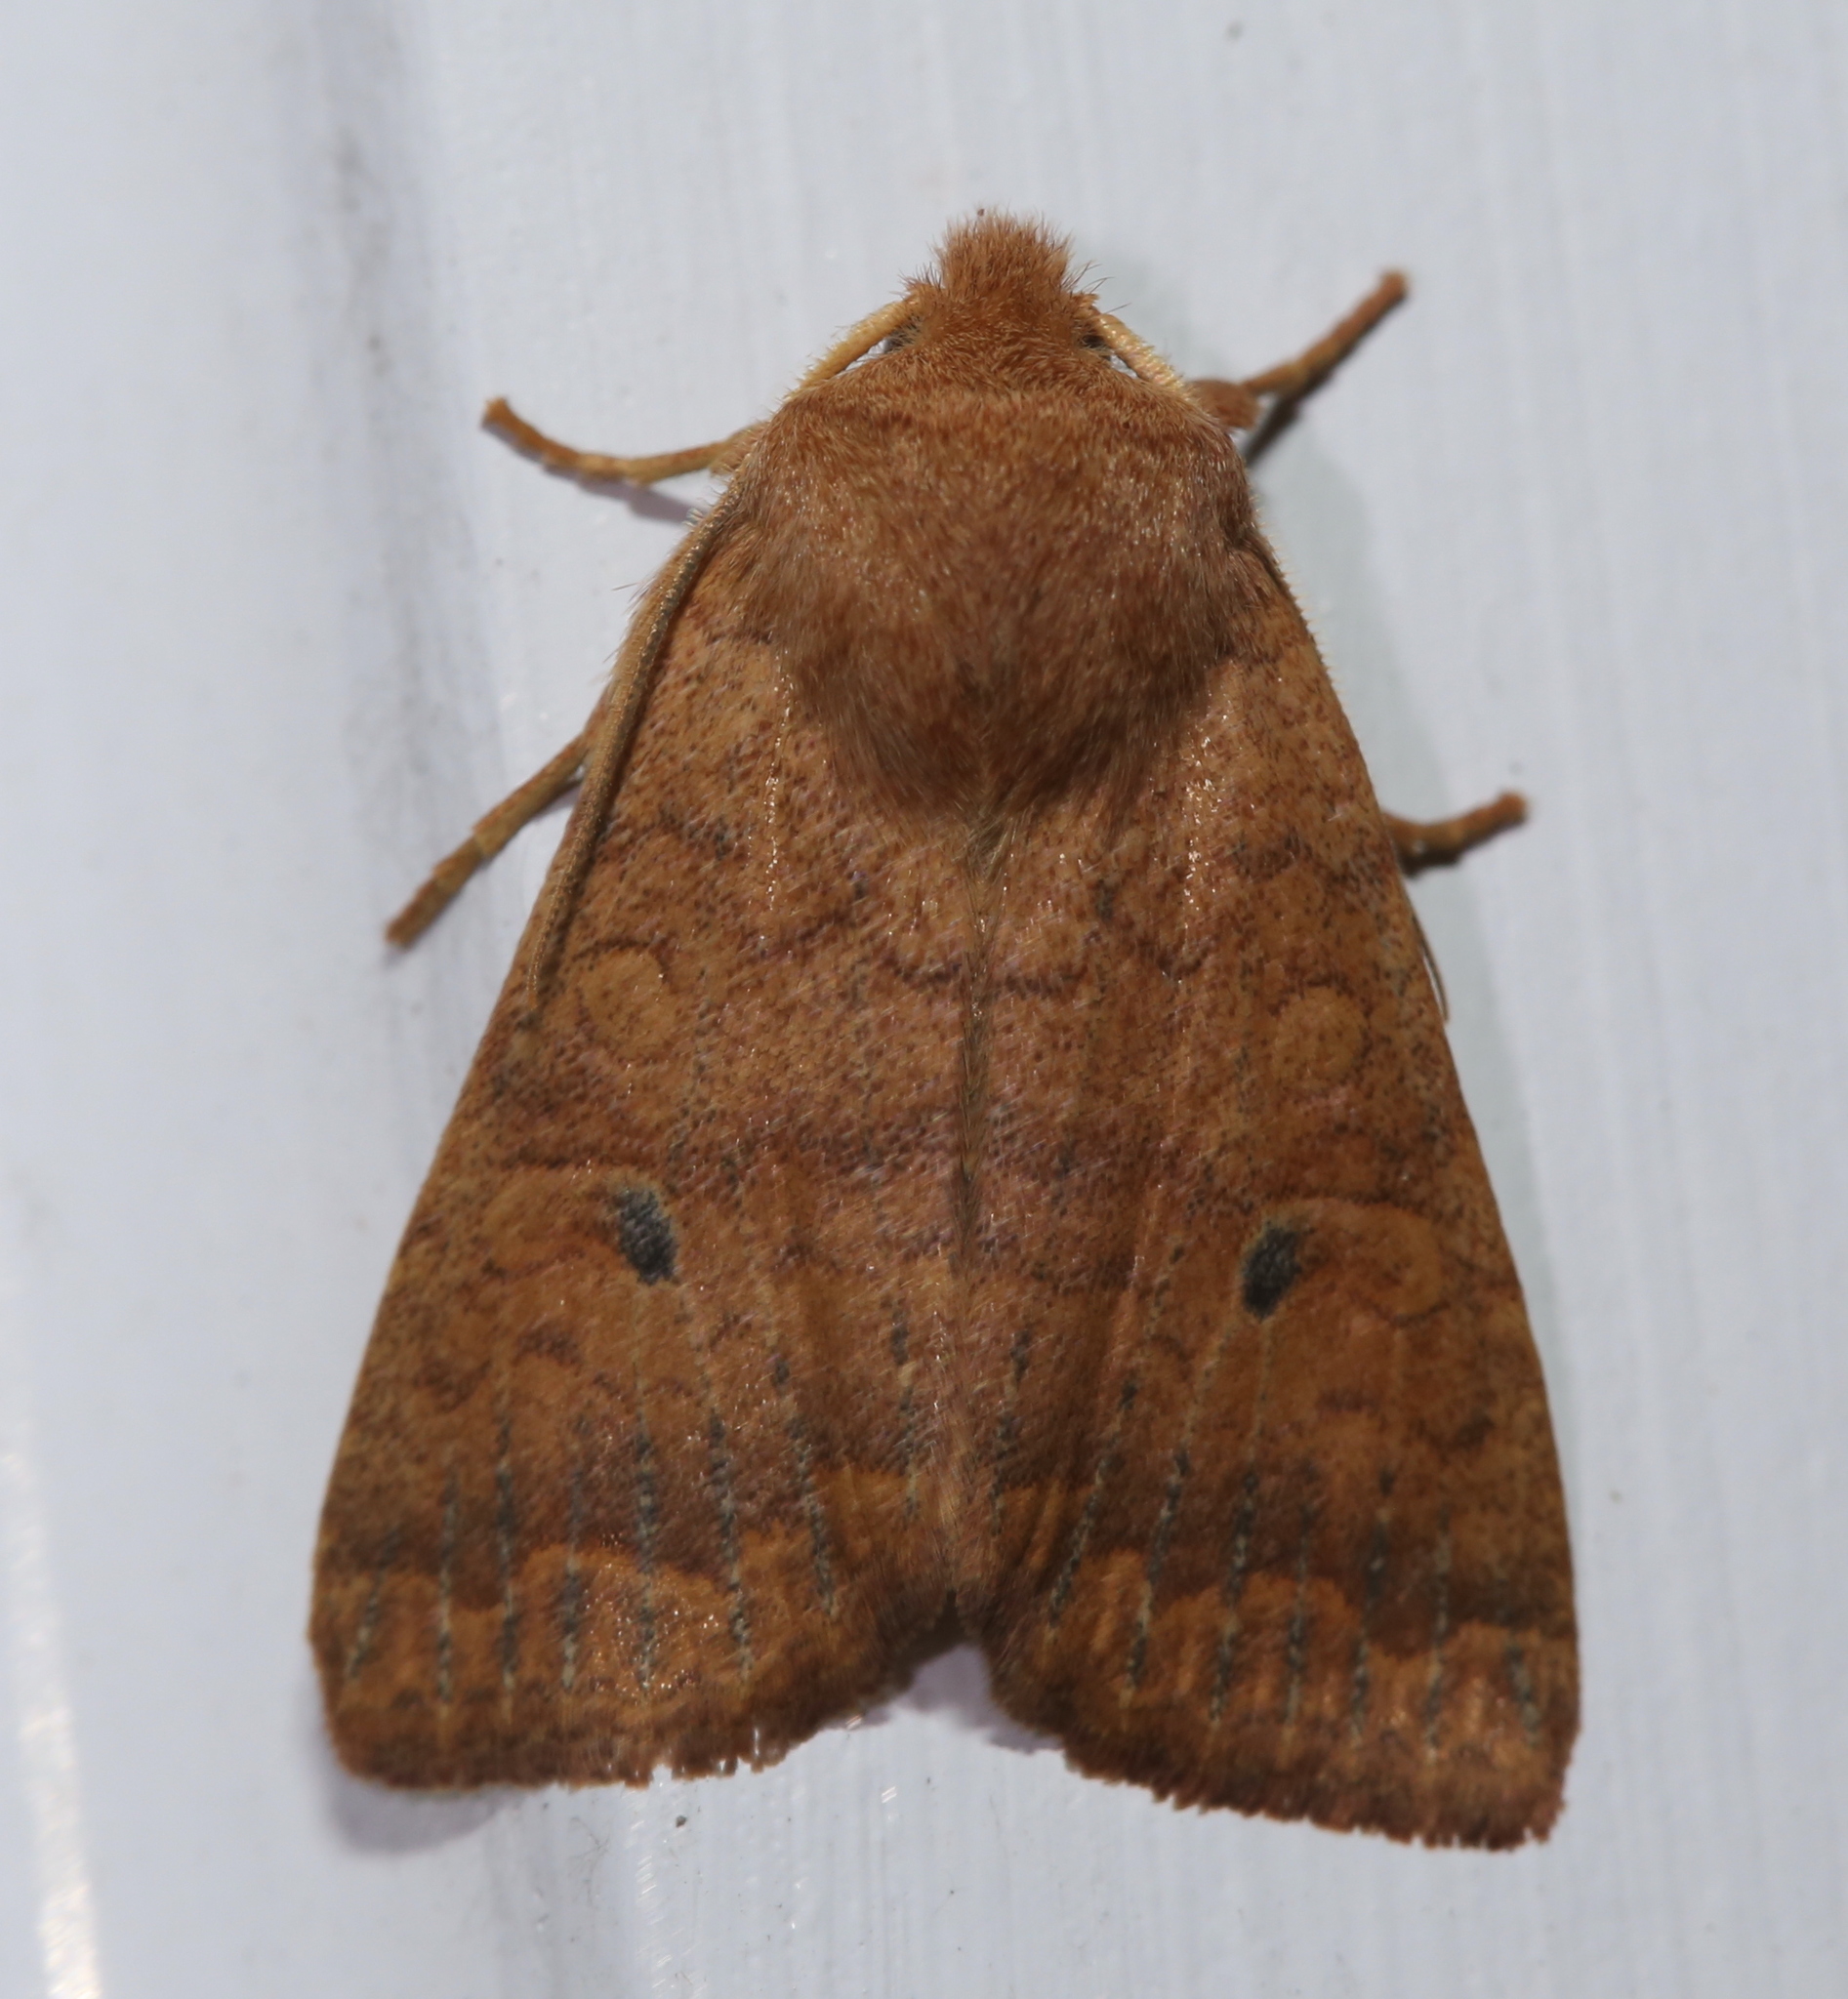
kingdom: Animalia
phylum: Arthropoda
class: Insecta
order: Lepidoptera
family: Noctuidae
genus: Agrochola
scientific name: Agrochola bicolorago
